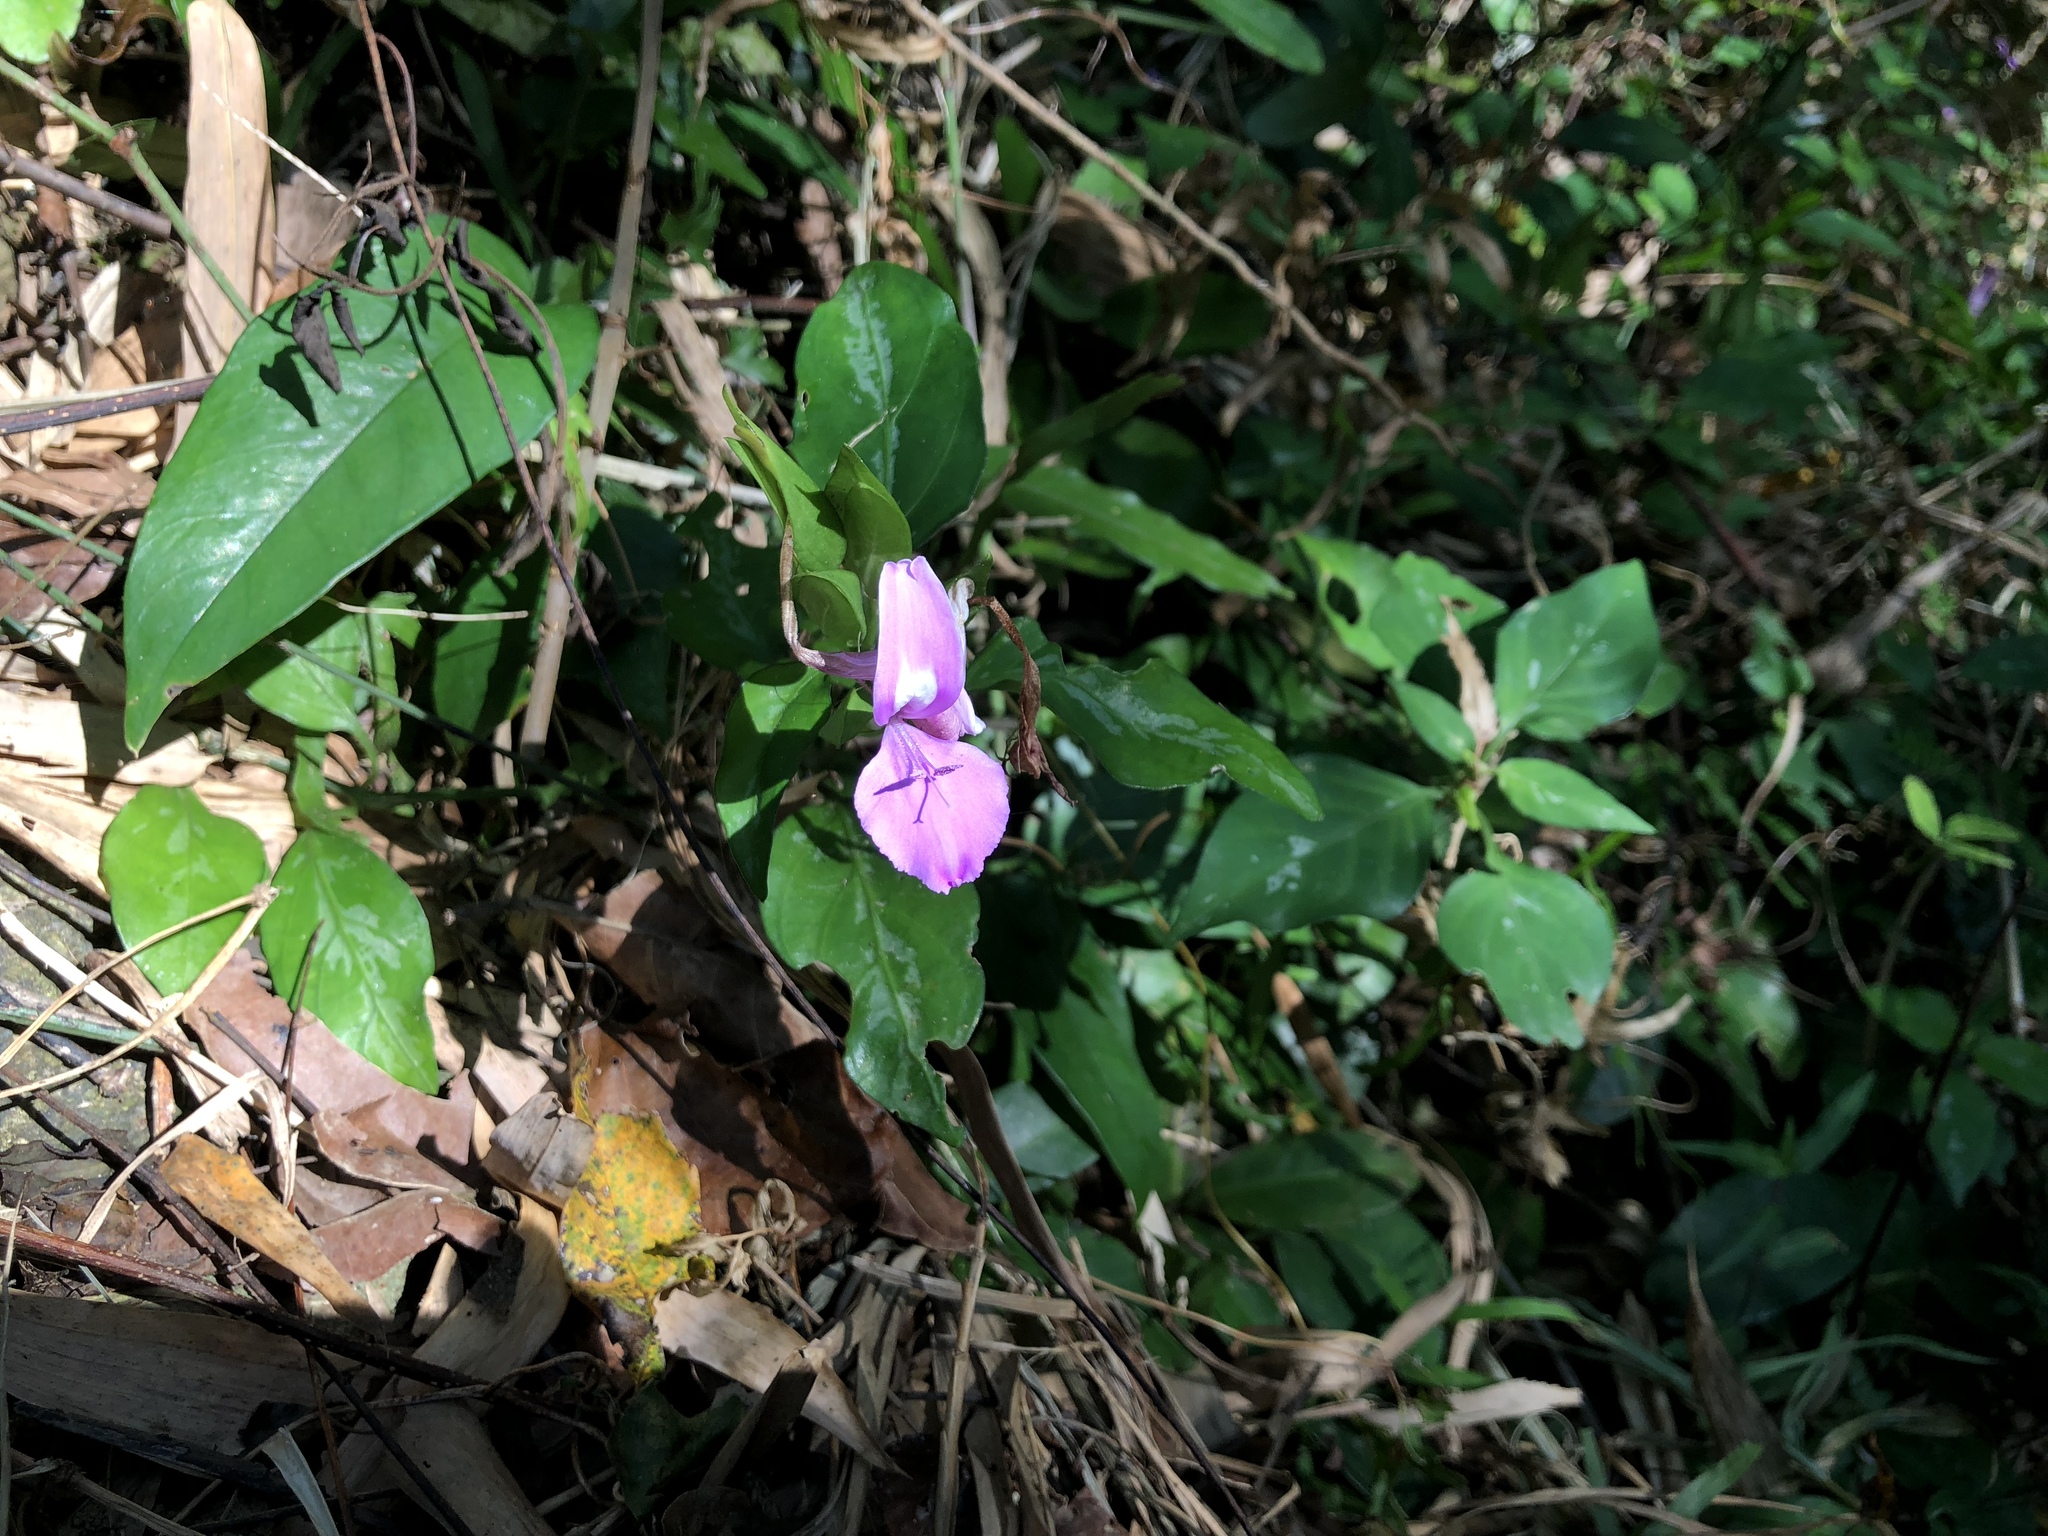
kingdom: Plantae
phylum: Tracheophyta
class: Magnoliopsida
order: Lamiales
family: Acanthaceae
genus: Dicliptera
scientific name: Dicliptera tinctoria
